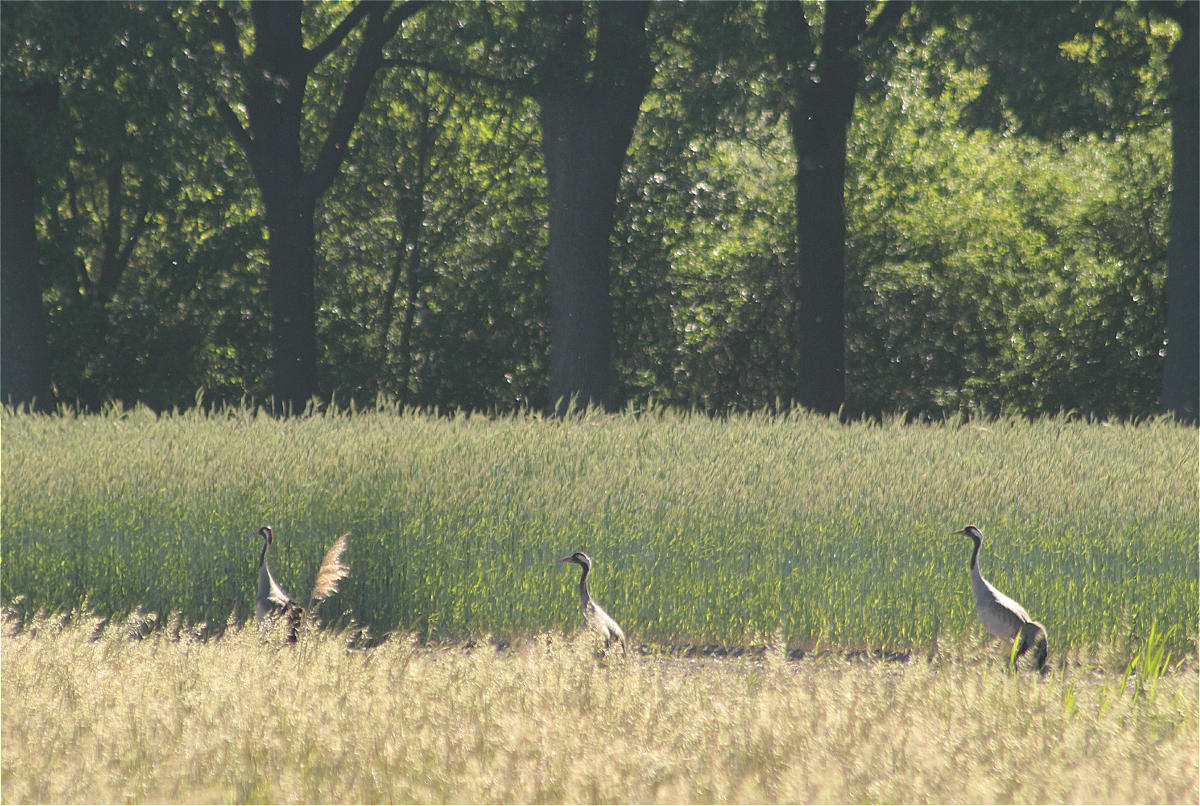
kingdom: Animalia
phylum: Chordata
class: Aves
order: Gruiformes
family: Gruidae
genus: Grus
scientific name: Grus grus
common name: Common crane
